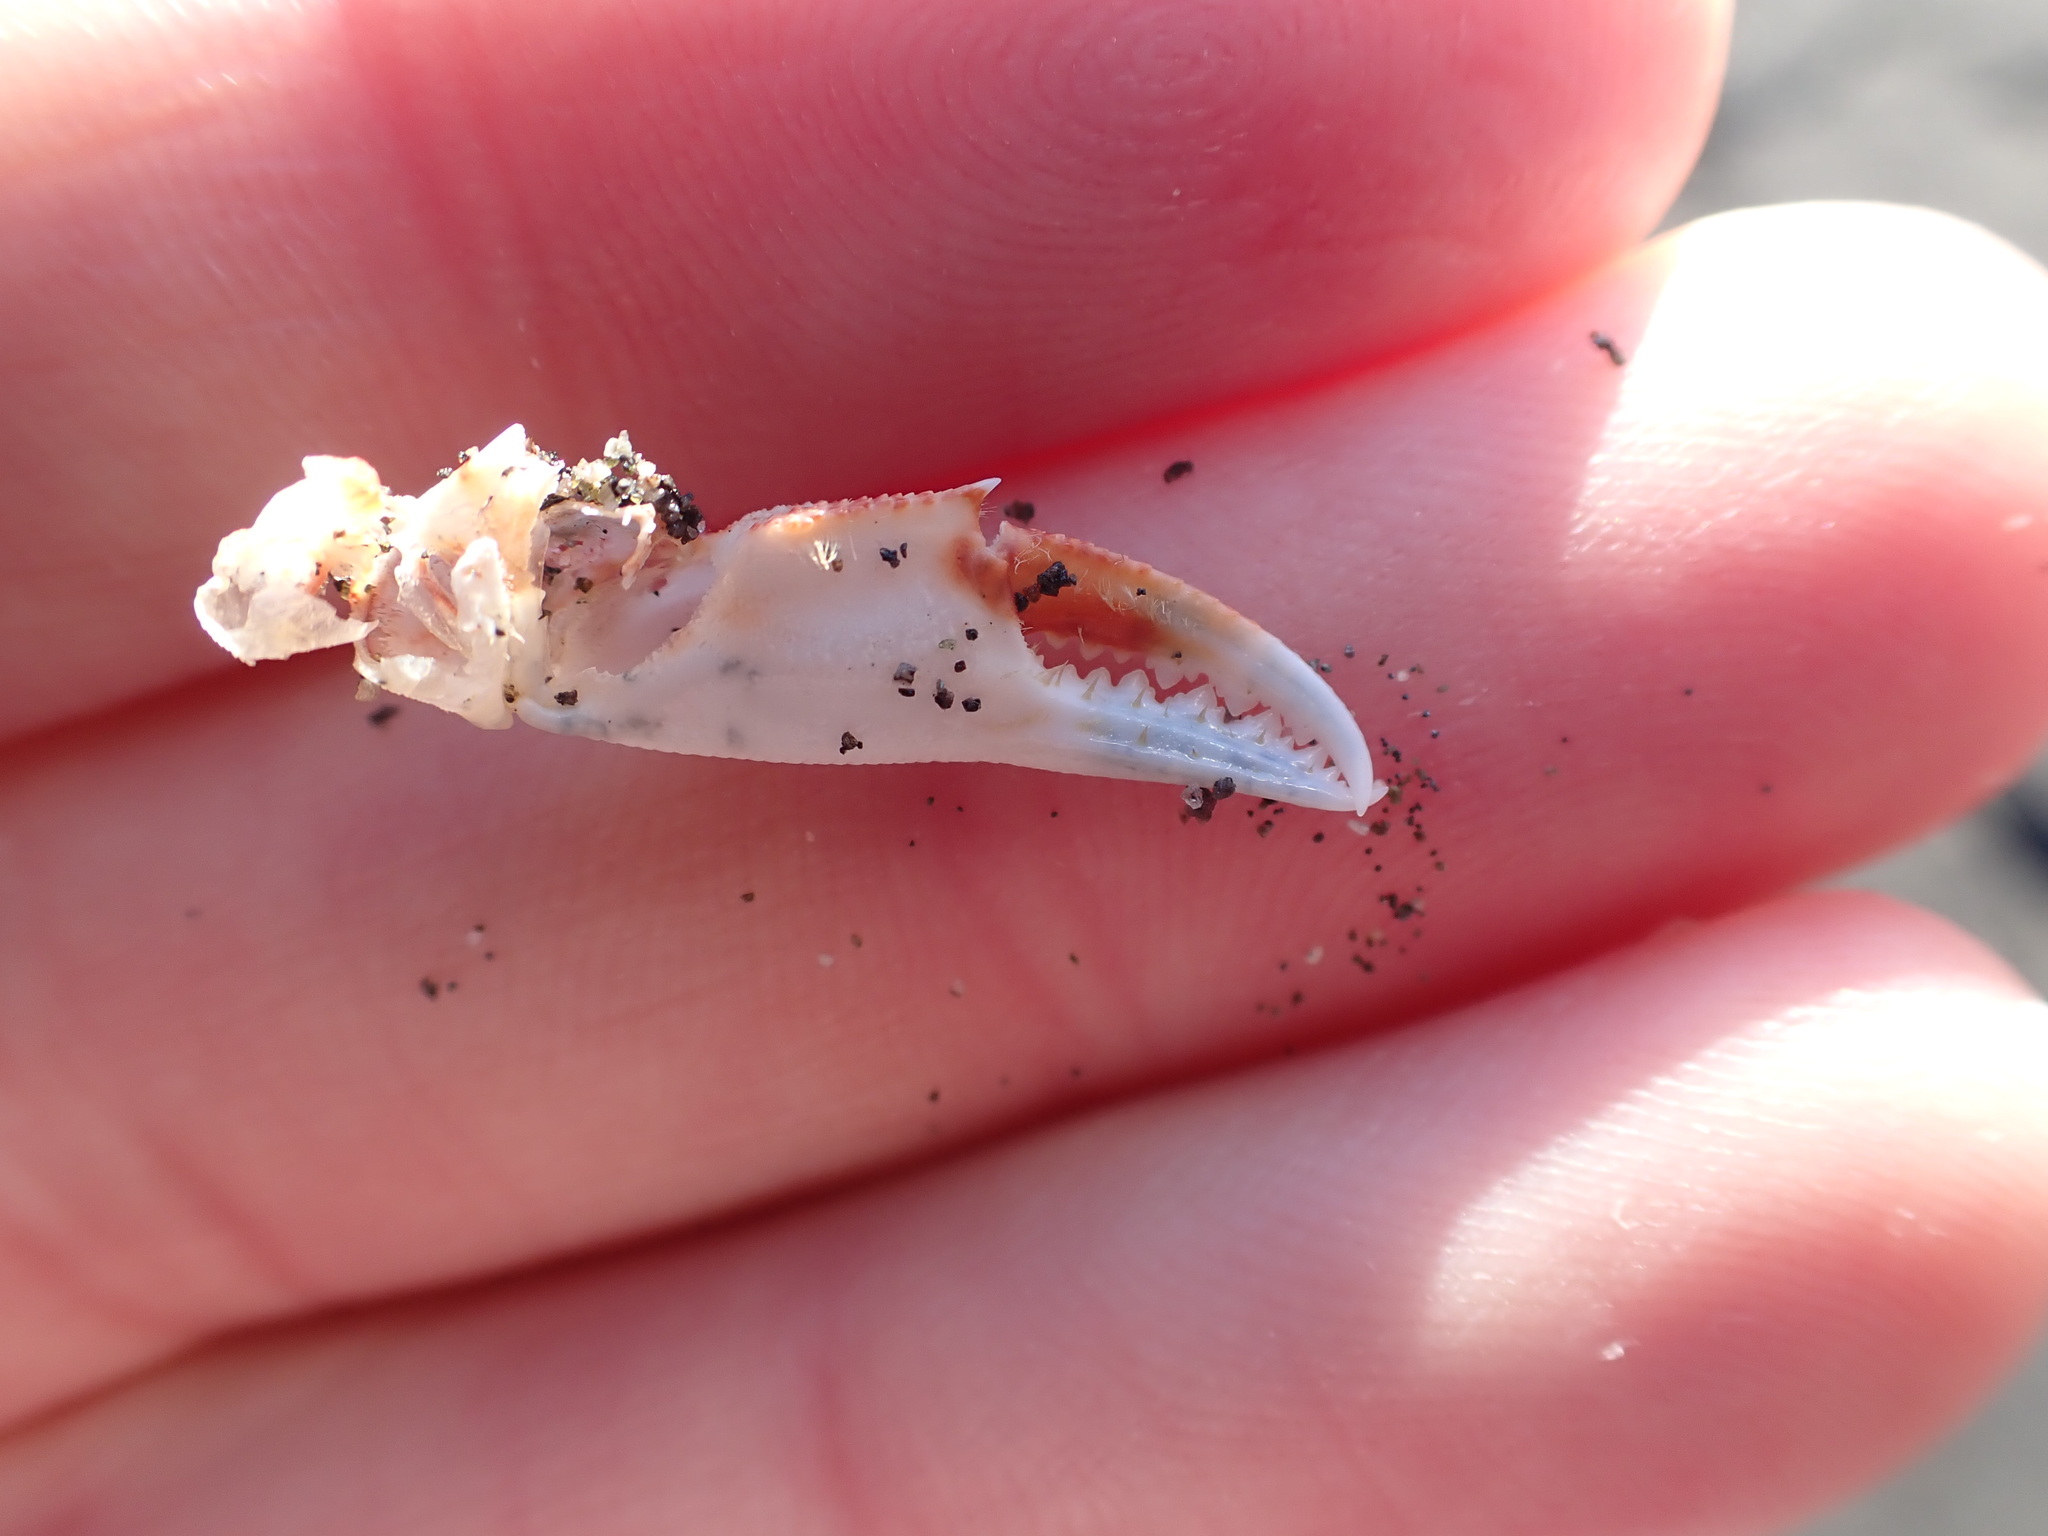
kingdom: Animalia
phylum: Arthropoda
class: Malacostraca
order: Decapoda
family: Ovalipidae
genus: Ovalipes
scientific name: Ovalipes catharus
